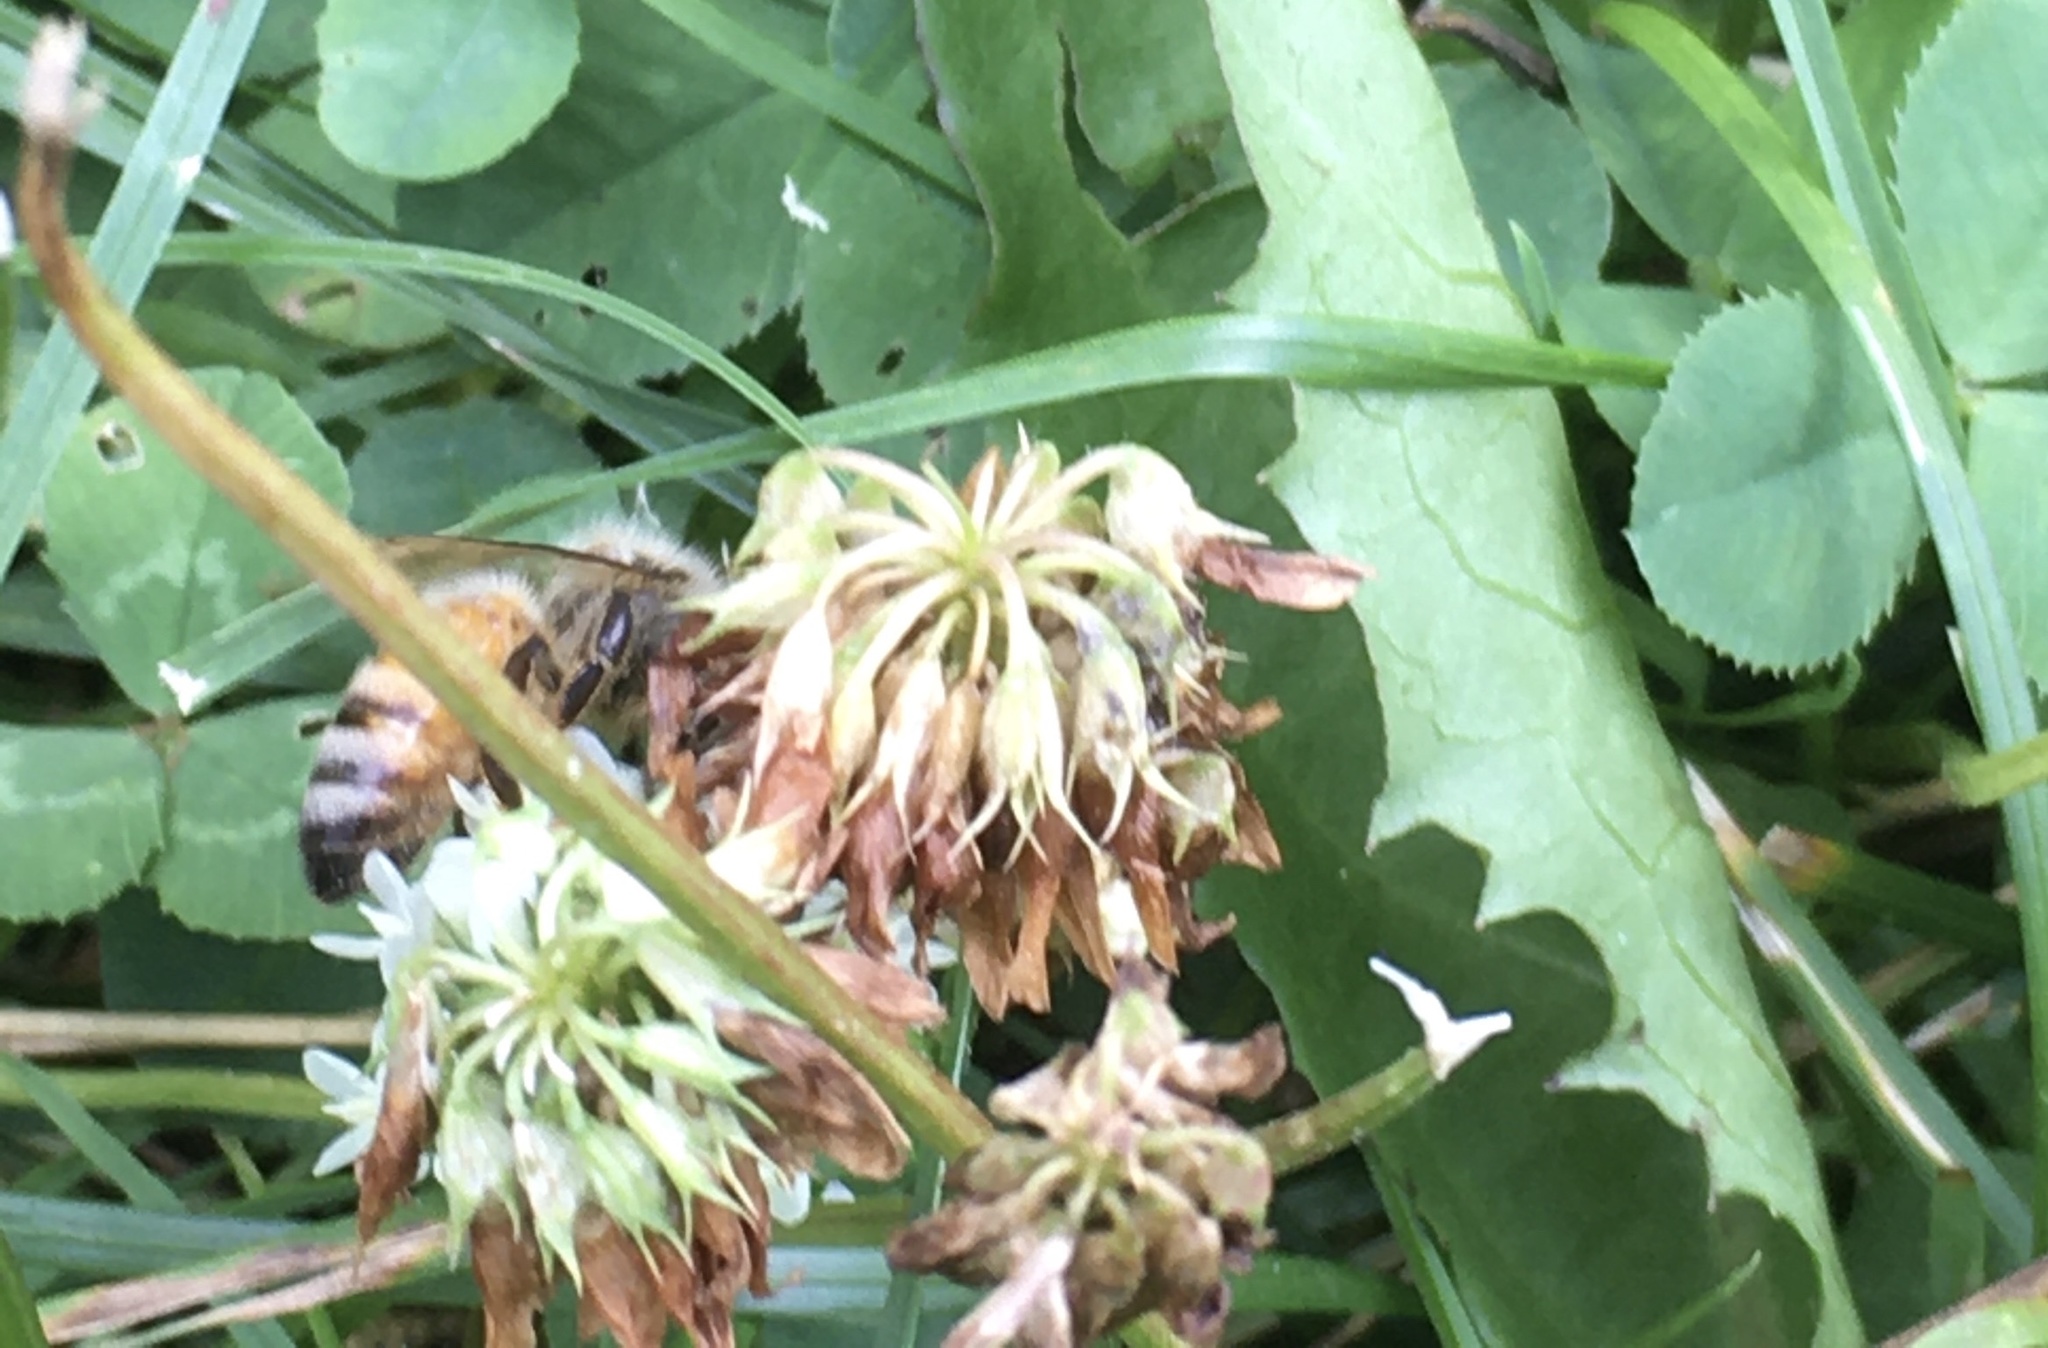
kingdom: Plantae
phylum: Tracheophyta
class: Magnoliopsida
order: Fabales
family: Fabaceae
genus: Trifolium
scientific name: Trifolium repens
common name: White clover
